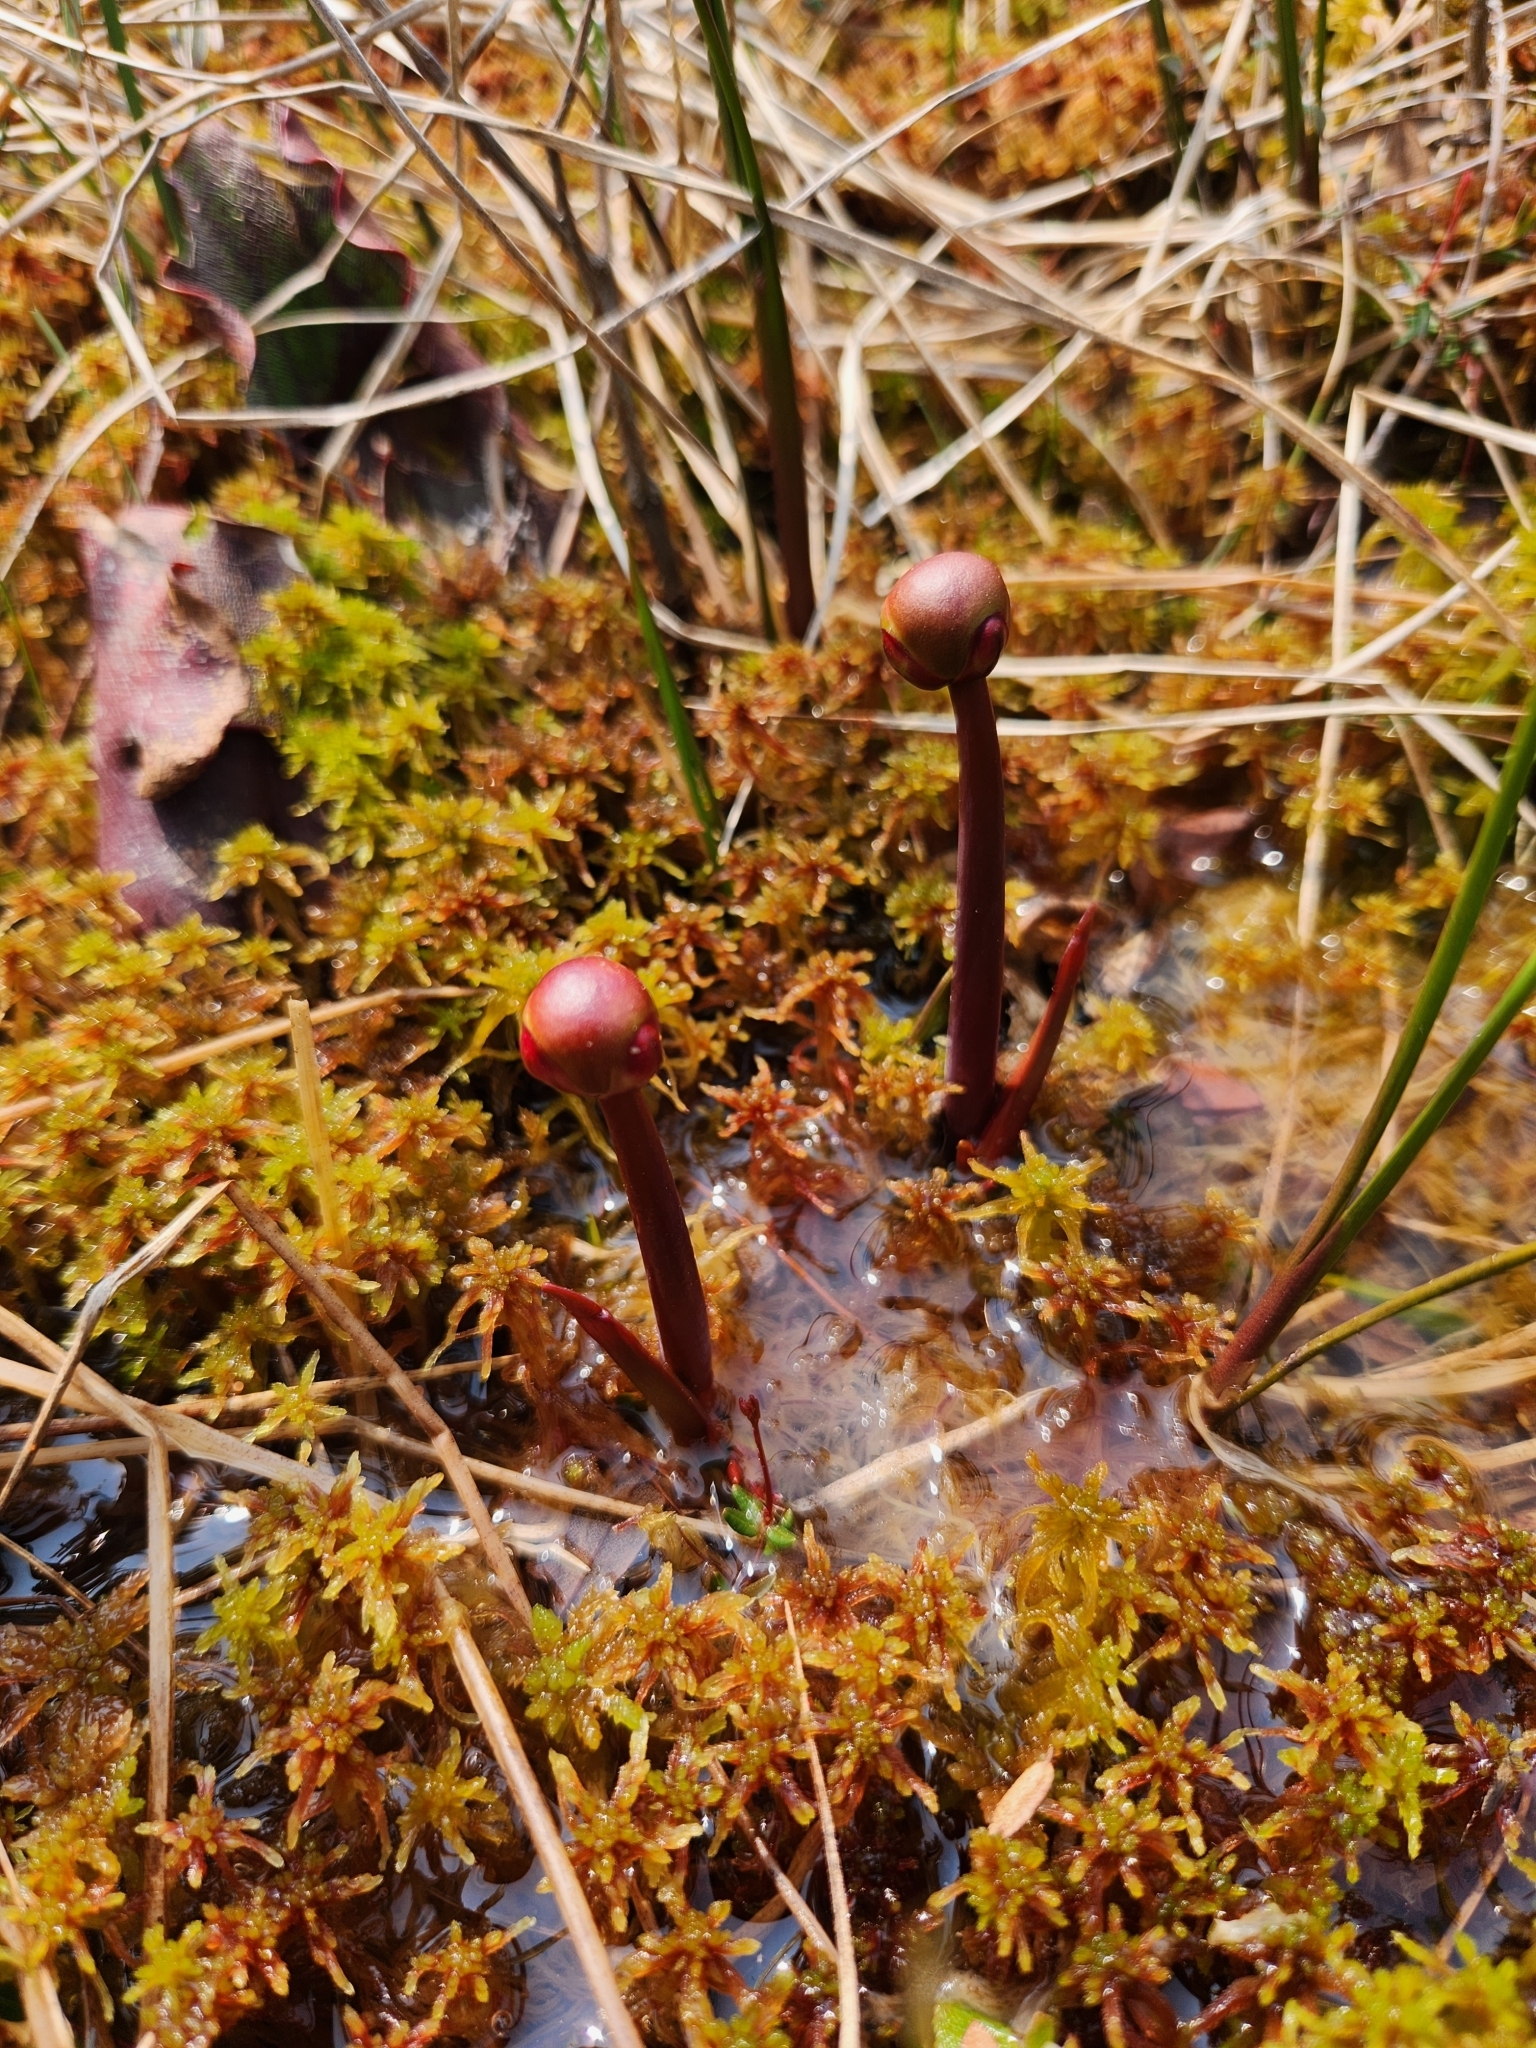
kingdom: Plantae
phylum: Tracheophyta
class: Magnoliopsida
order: Ericales
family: Sarraceniaceae
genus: Sarracenia
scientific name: Sarracenia purpurea
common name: Pitcherplant
